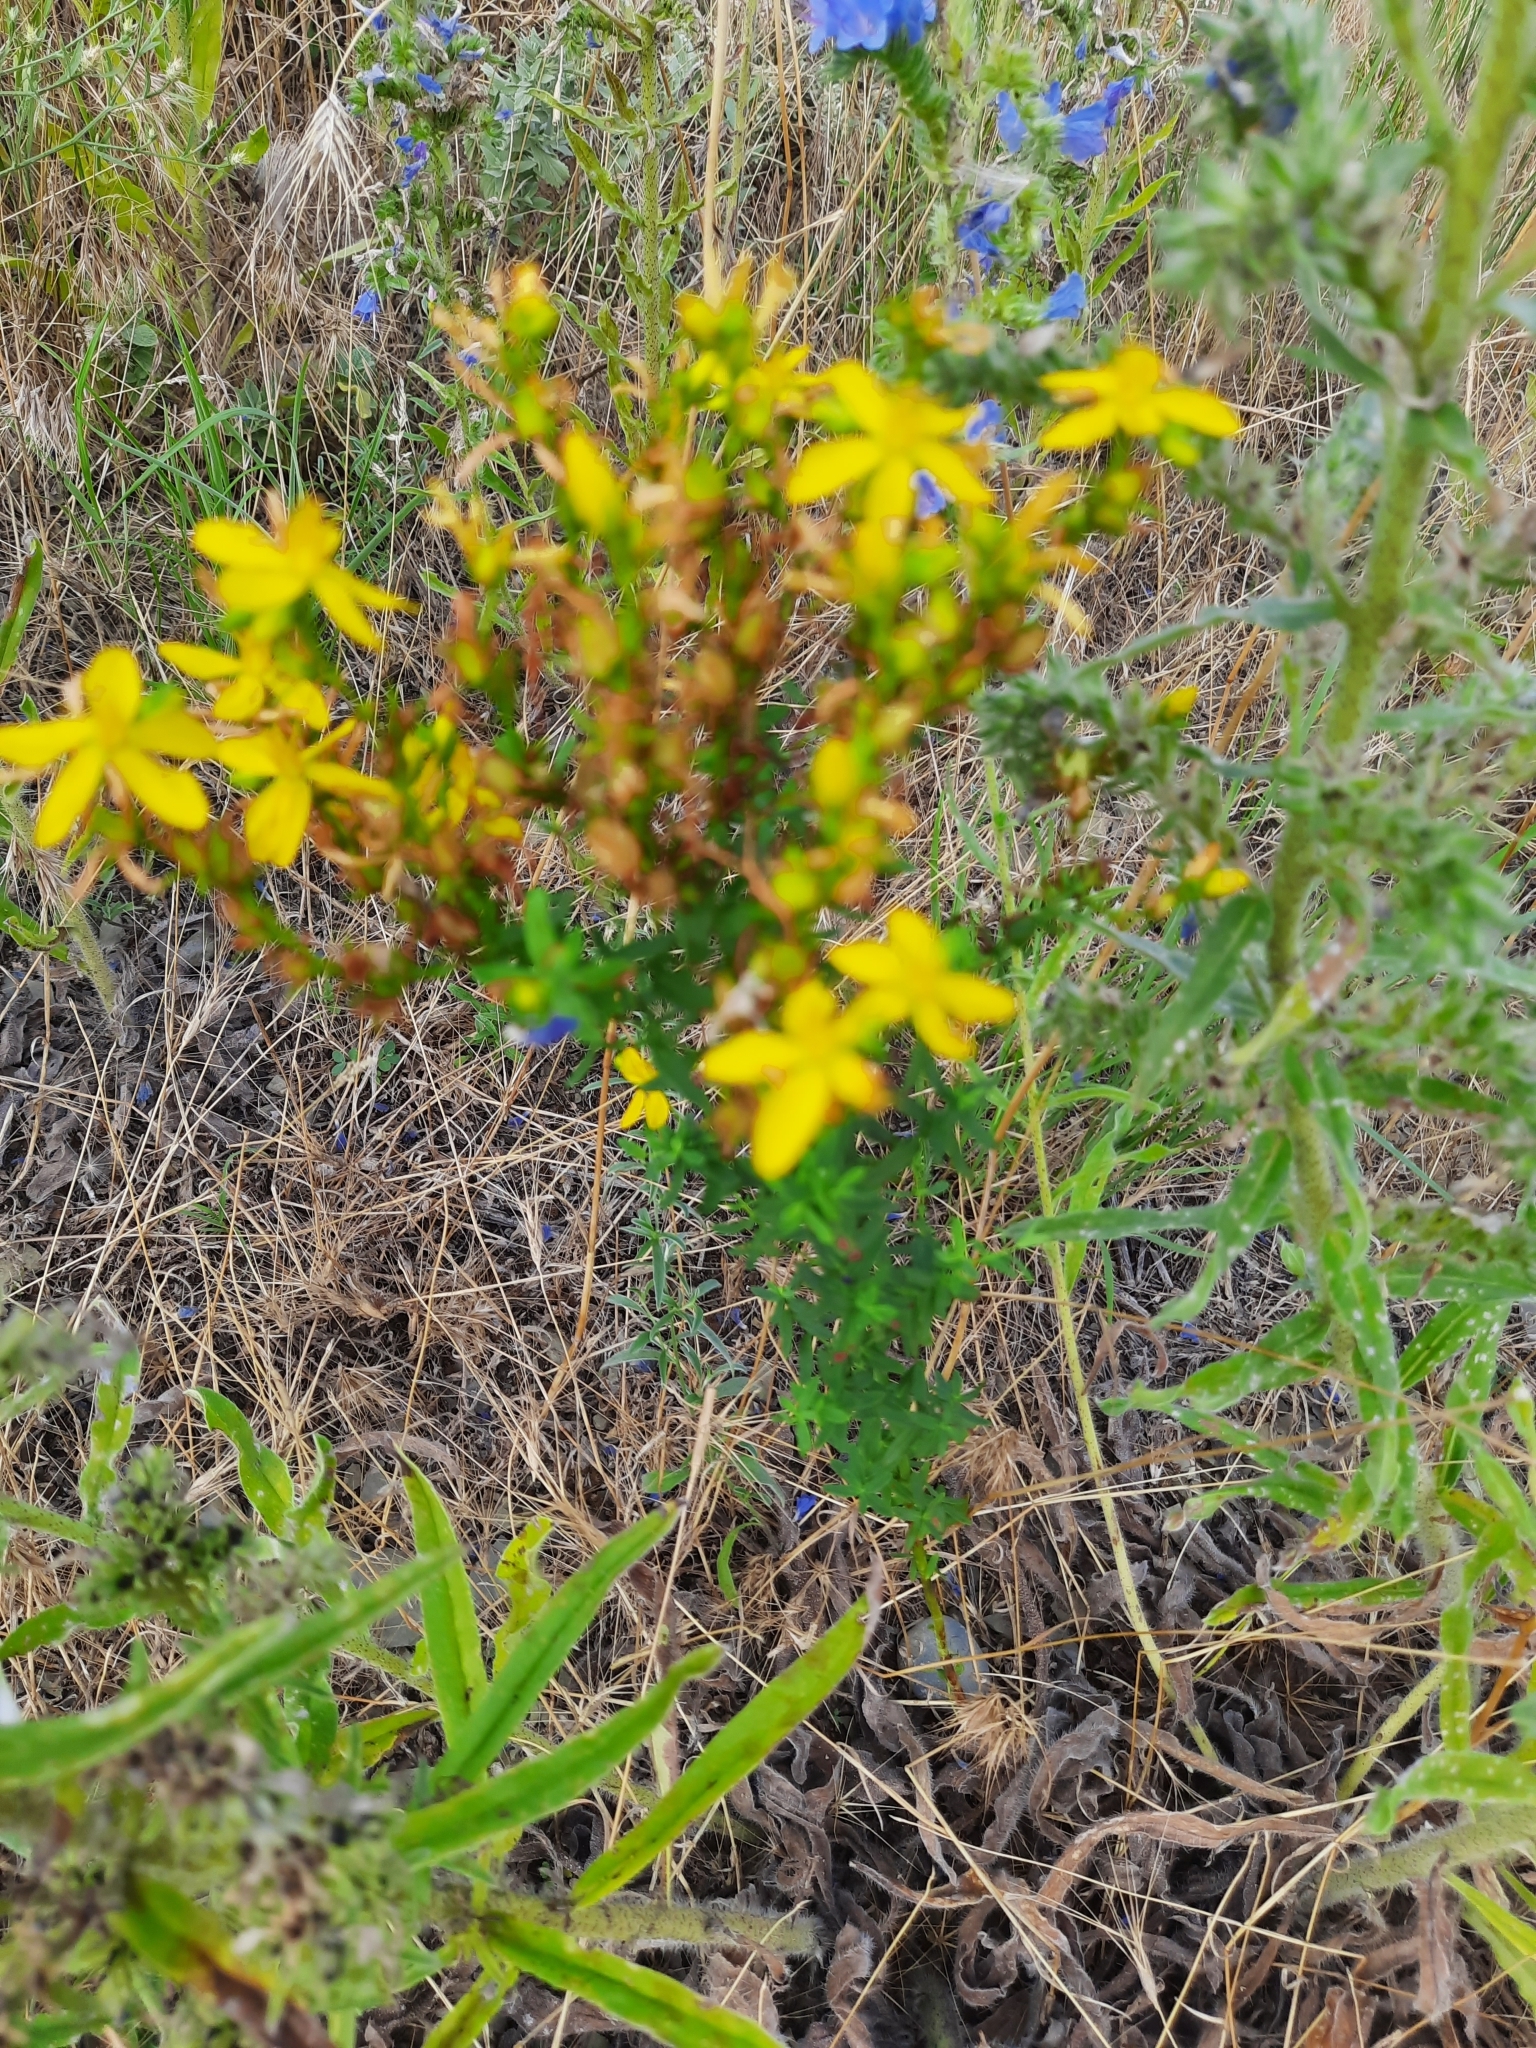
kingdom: Plantae
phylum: Tracheophyta
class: Magnoliopsida
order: Malpighiales
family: Hypericaceae
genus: Hypericum
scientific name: Hypericum perforatum
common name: Common st. johnswort
